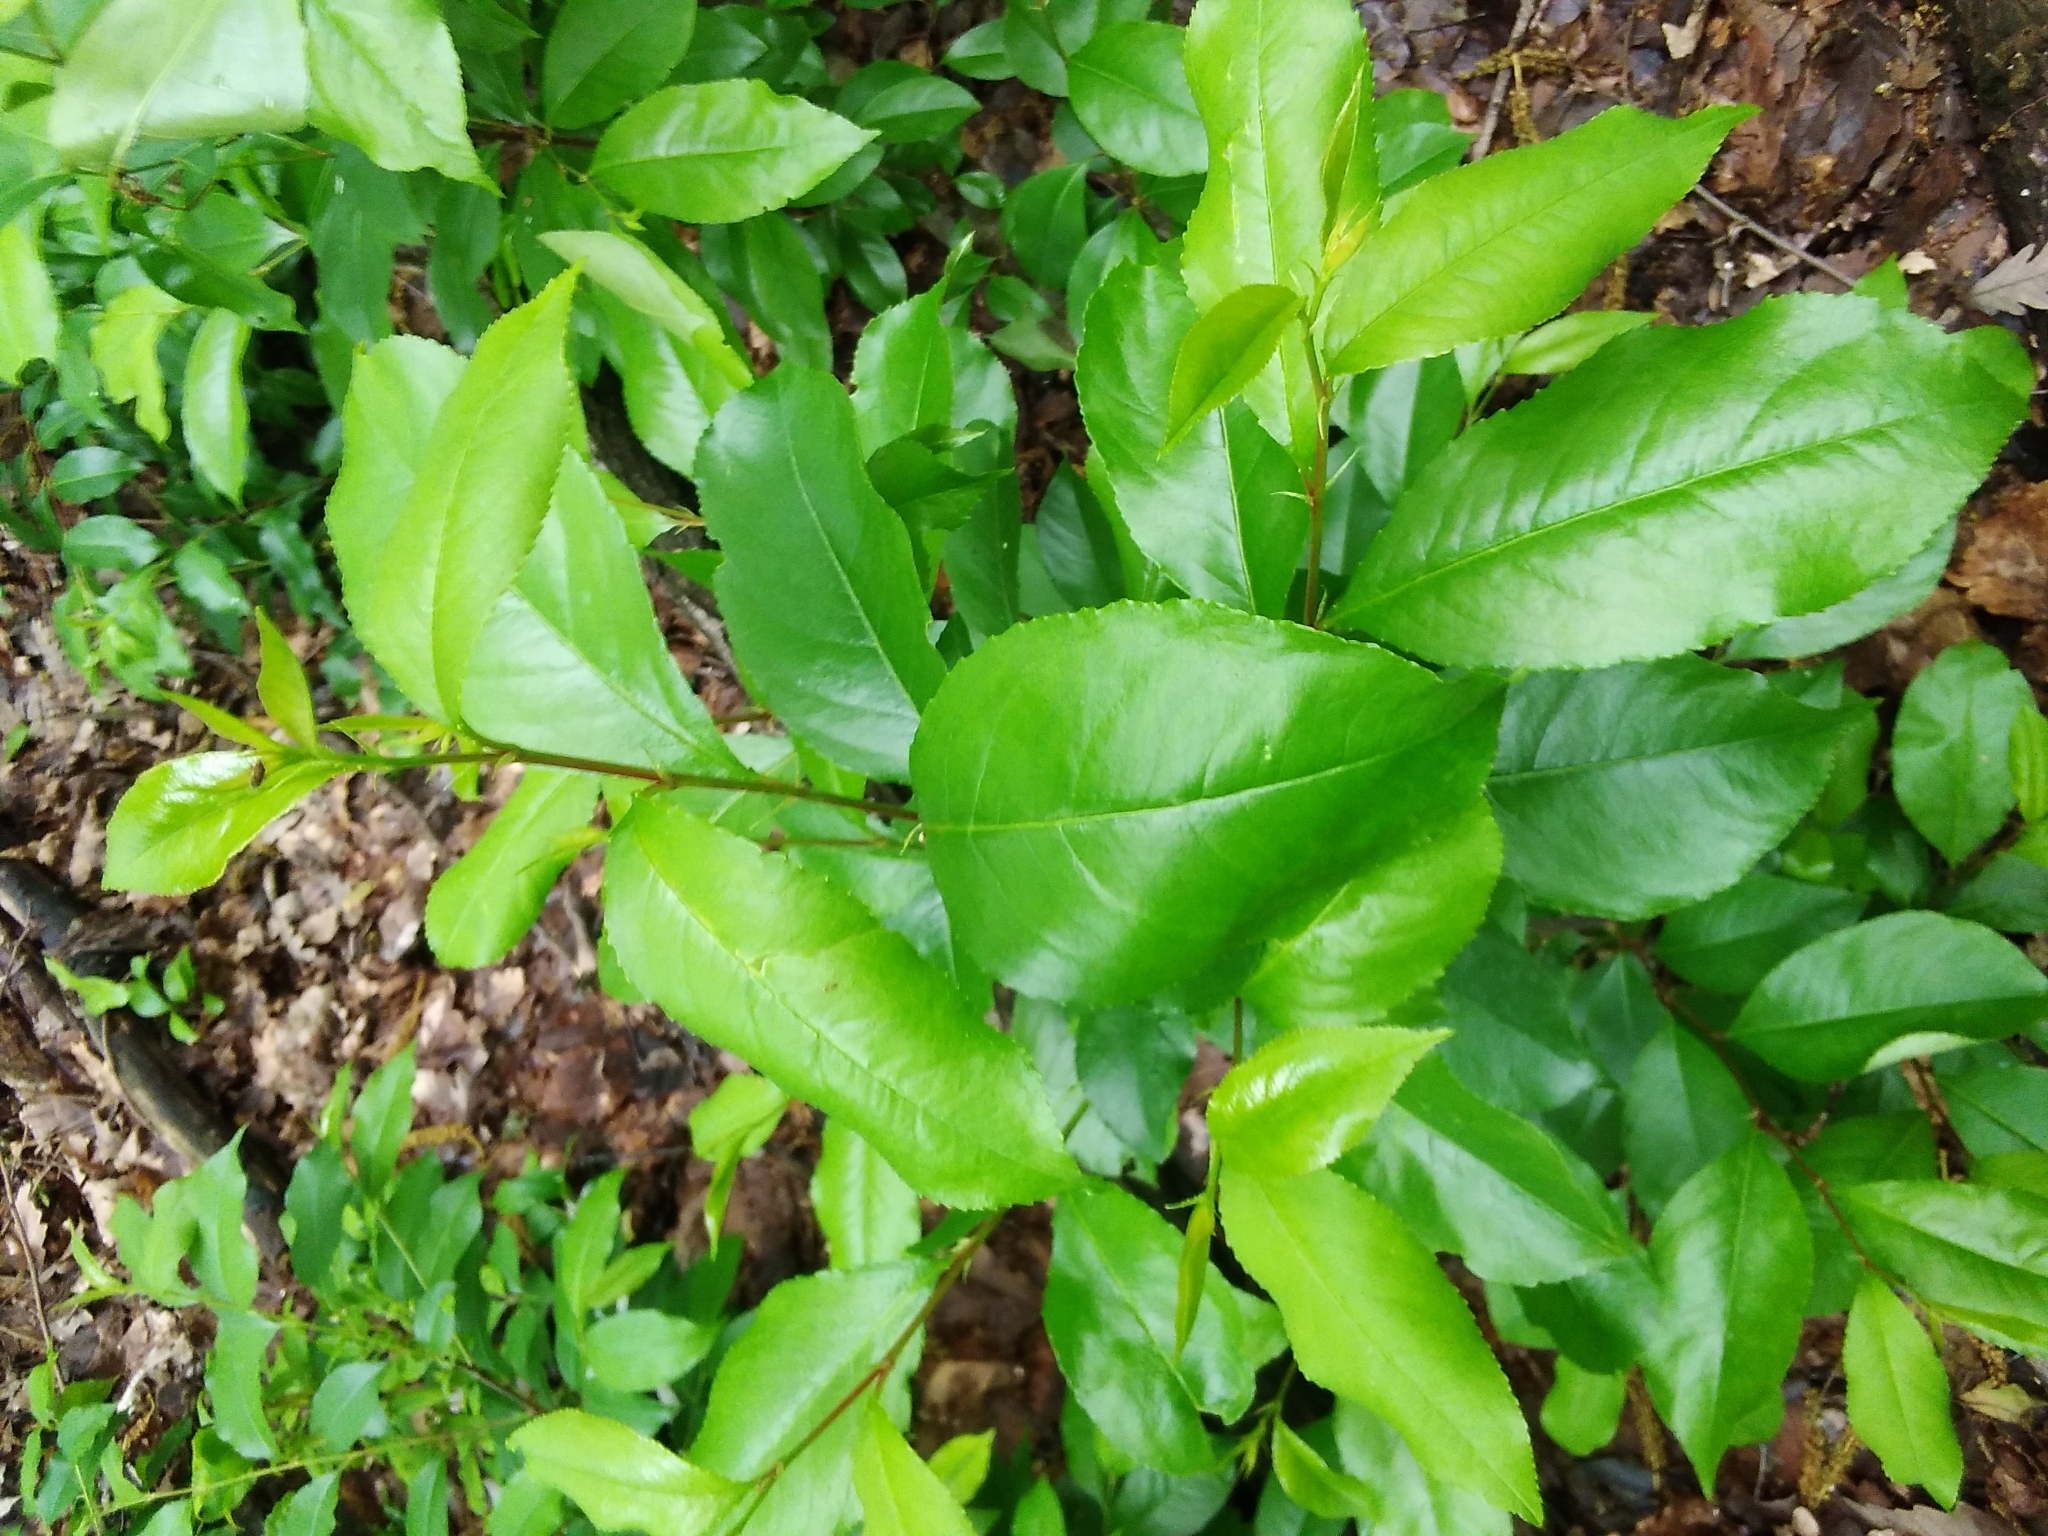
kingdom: Plantae
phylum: Tracheophyta
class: Magnoliopsida
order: Rosales
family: Rosaceae
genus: Prunus
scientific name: Prunus serotina
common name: Black cherry
